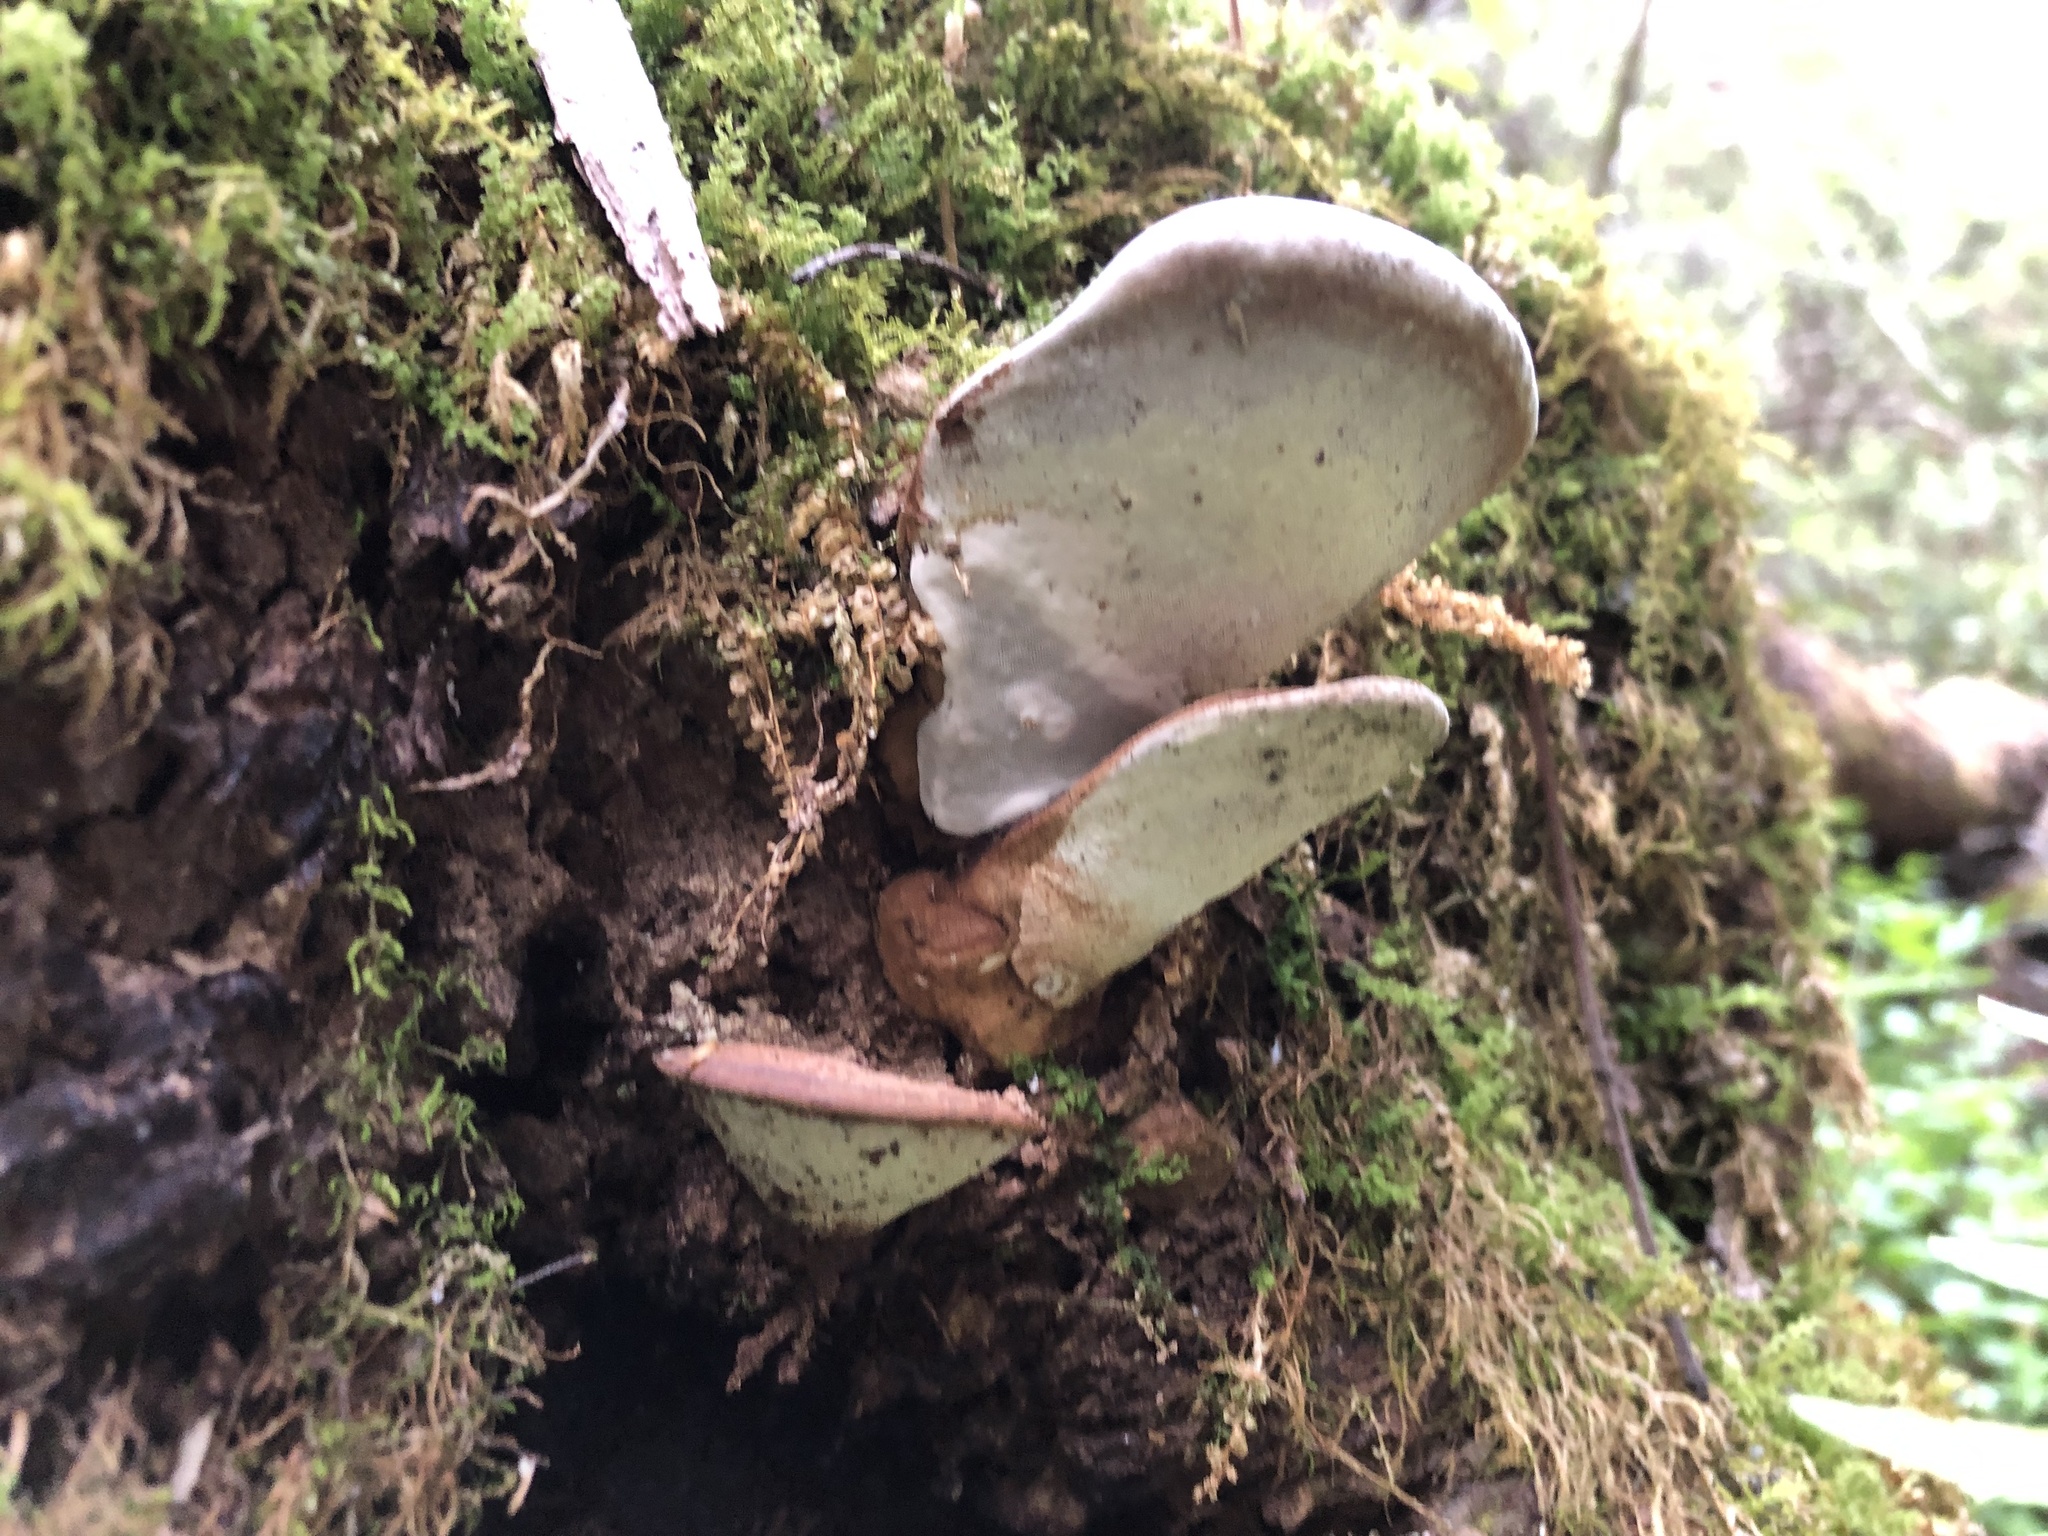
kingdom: Fungi
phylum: Basidiomycota
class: Agaricomycetes
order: Polyporales
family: Polyporaceae
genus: Ganoderma
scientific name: Ganoderma lobatum
